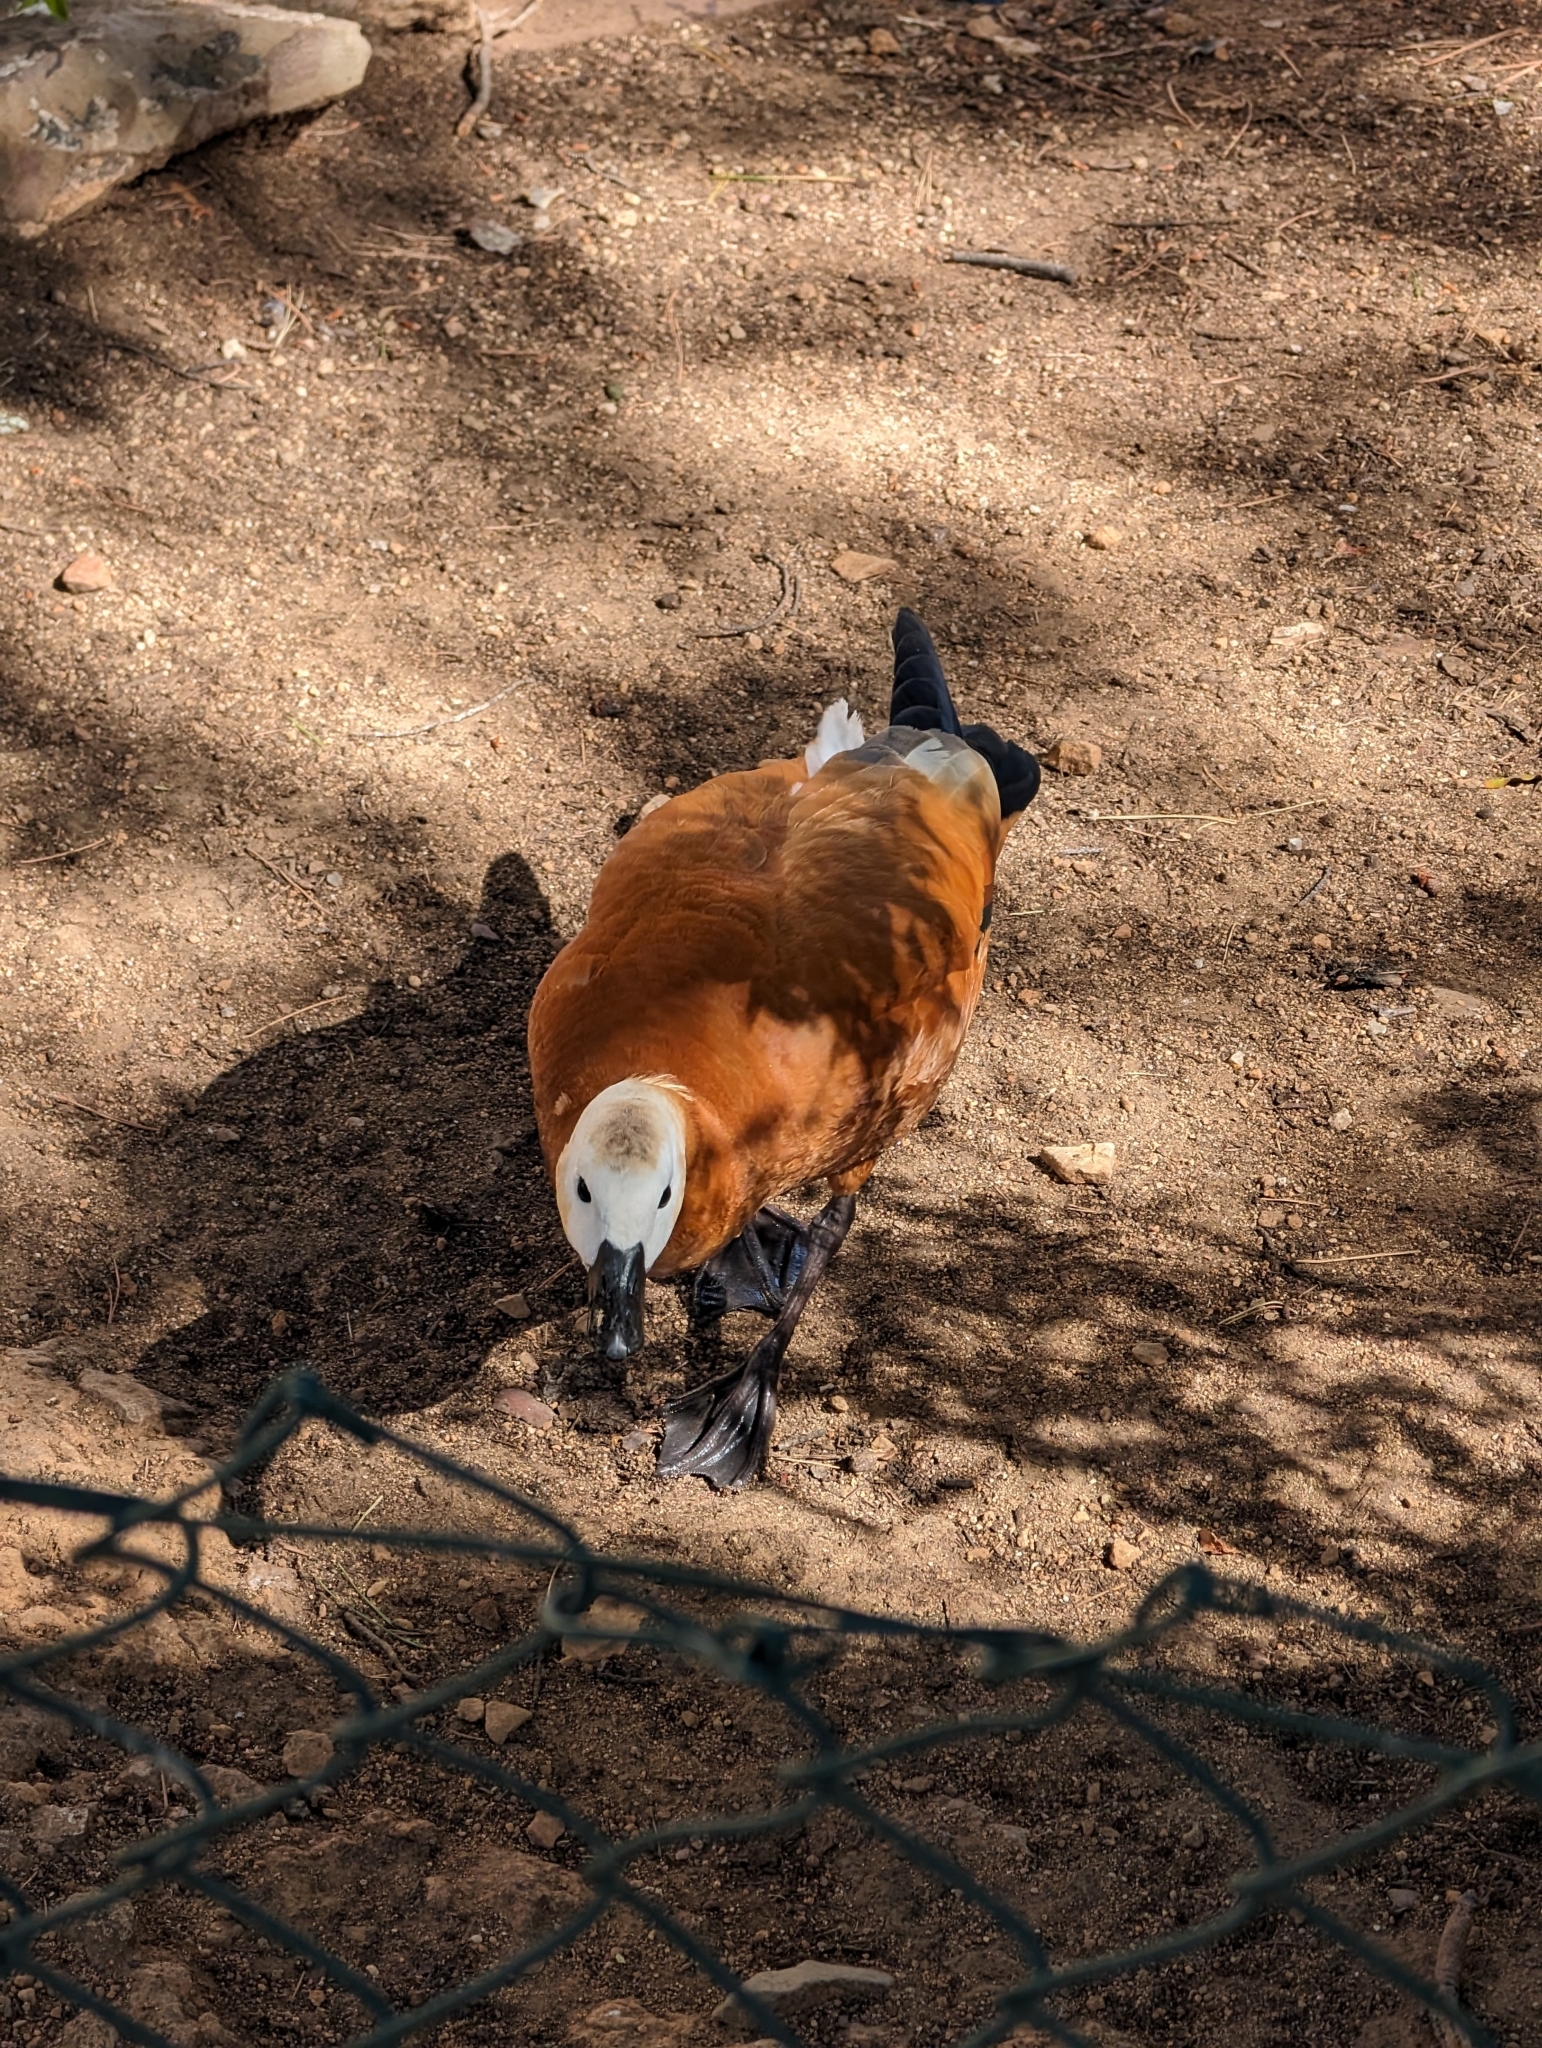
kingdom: Animalia
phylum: Chordata
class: Aves
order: Anseriformes
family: Anatidae
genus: Tadorna
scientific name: Tadorna ferruginea
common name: Ruddy shelduck
